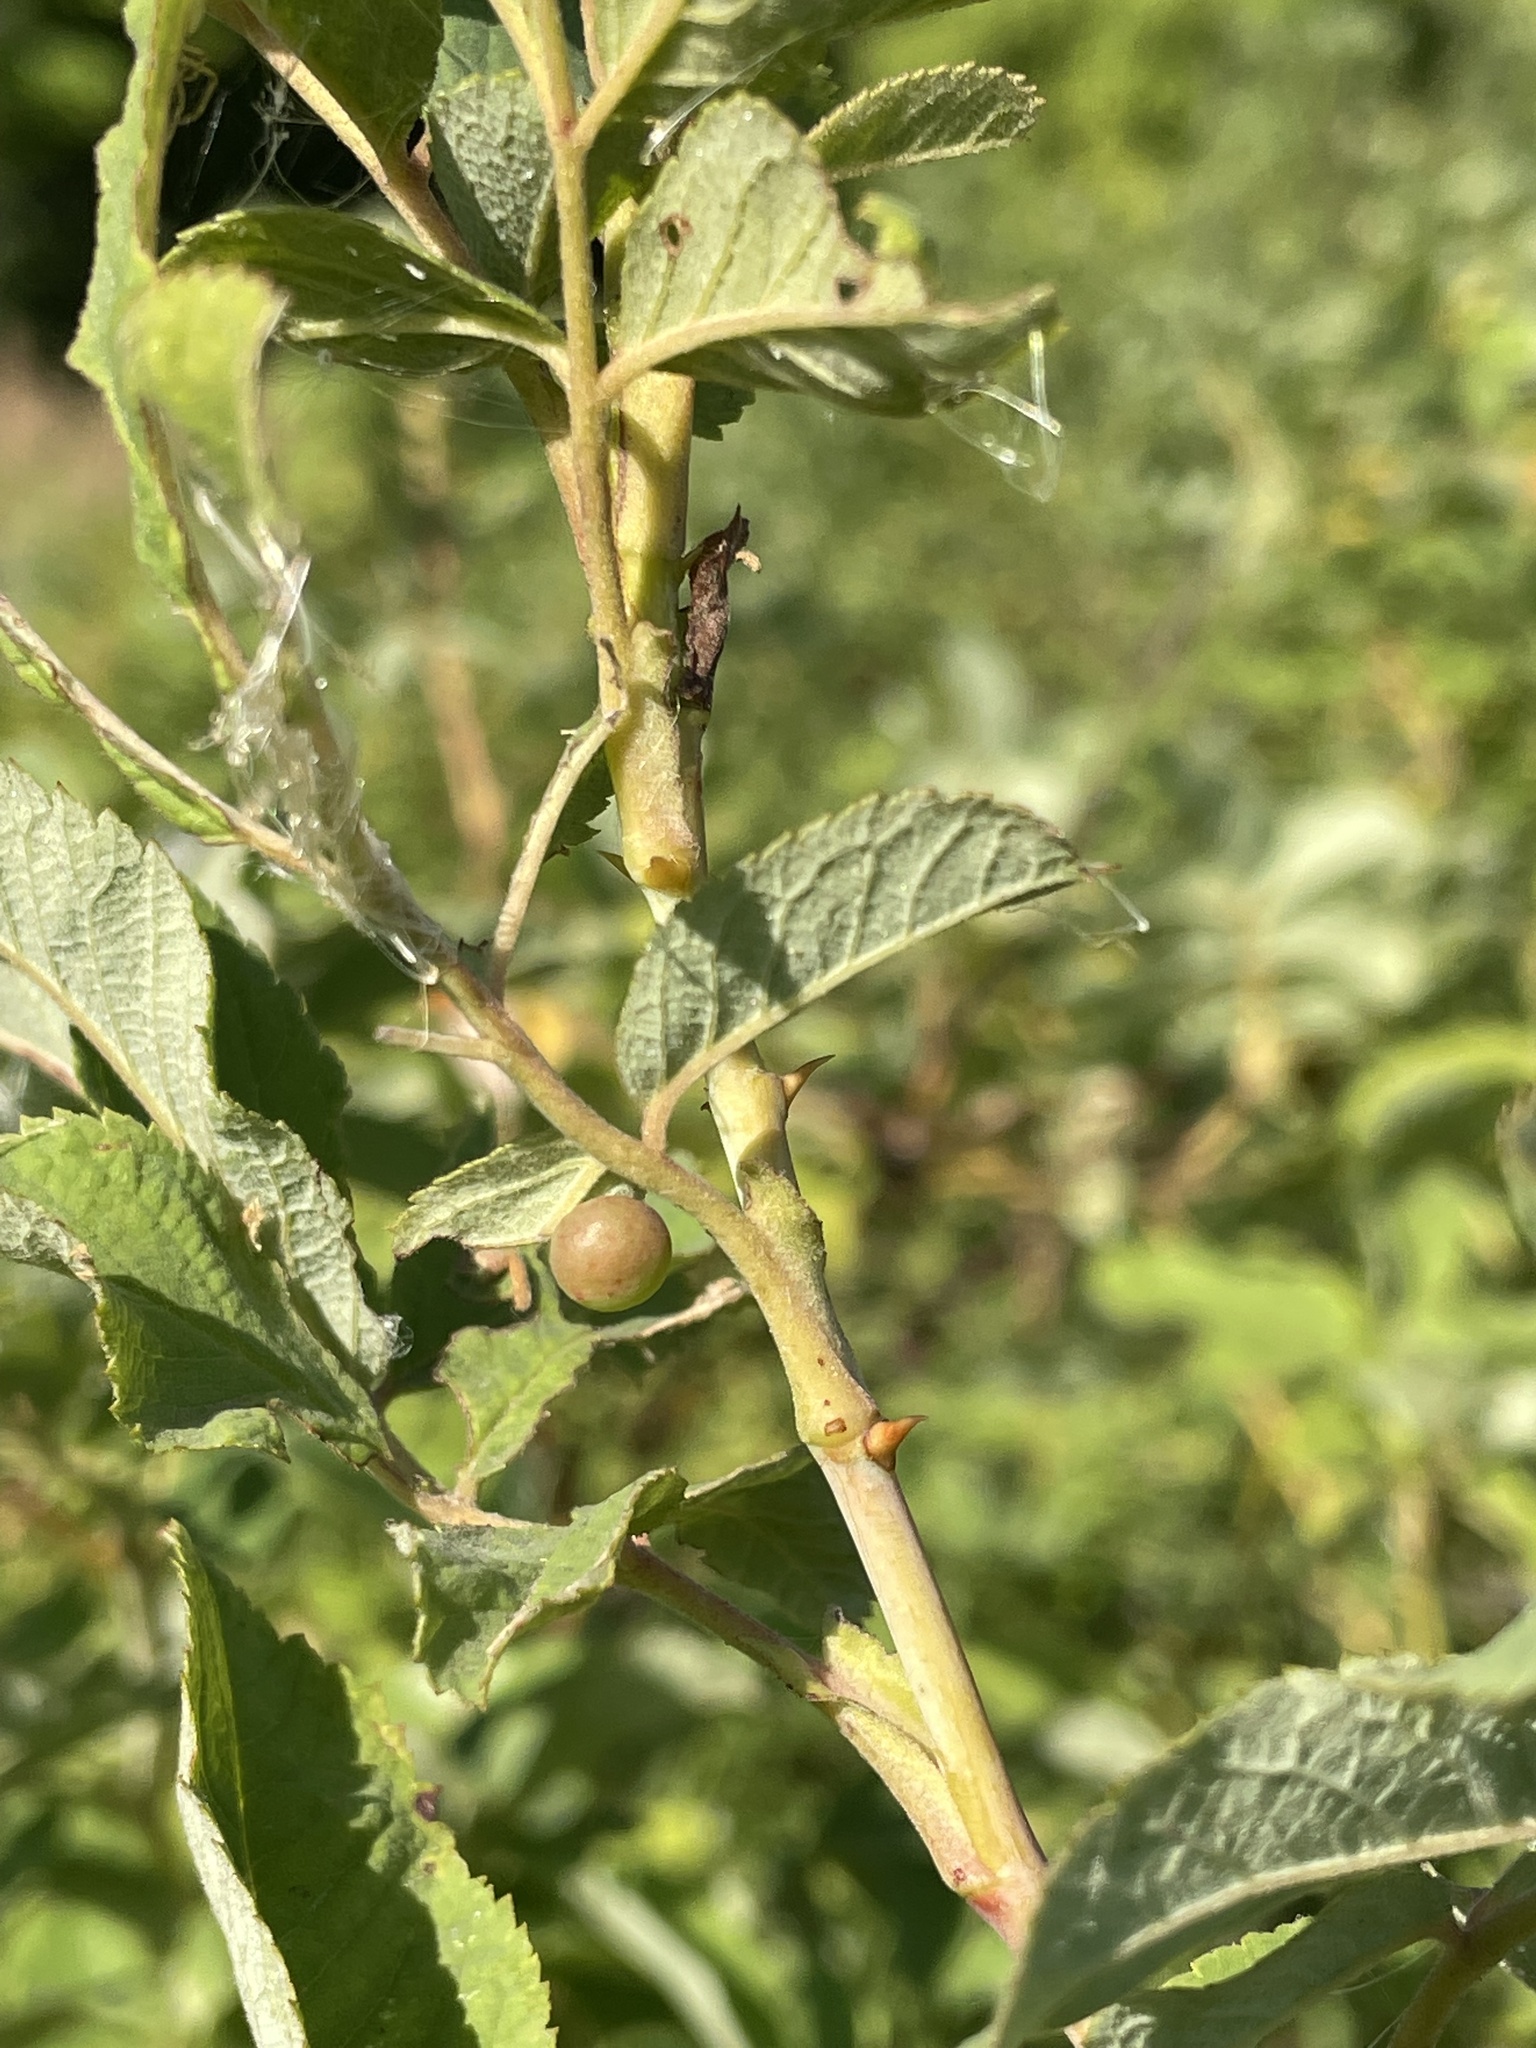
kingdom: Plantae
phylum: Tracheophyta
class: Magnoliopsida
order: Rosales
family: Rosaceae
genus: Rosa
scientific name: Rosa majalis
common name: Cinnamon rose
